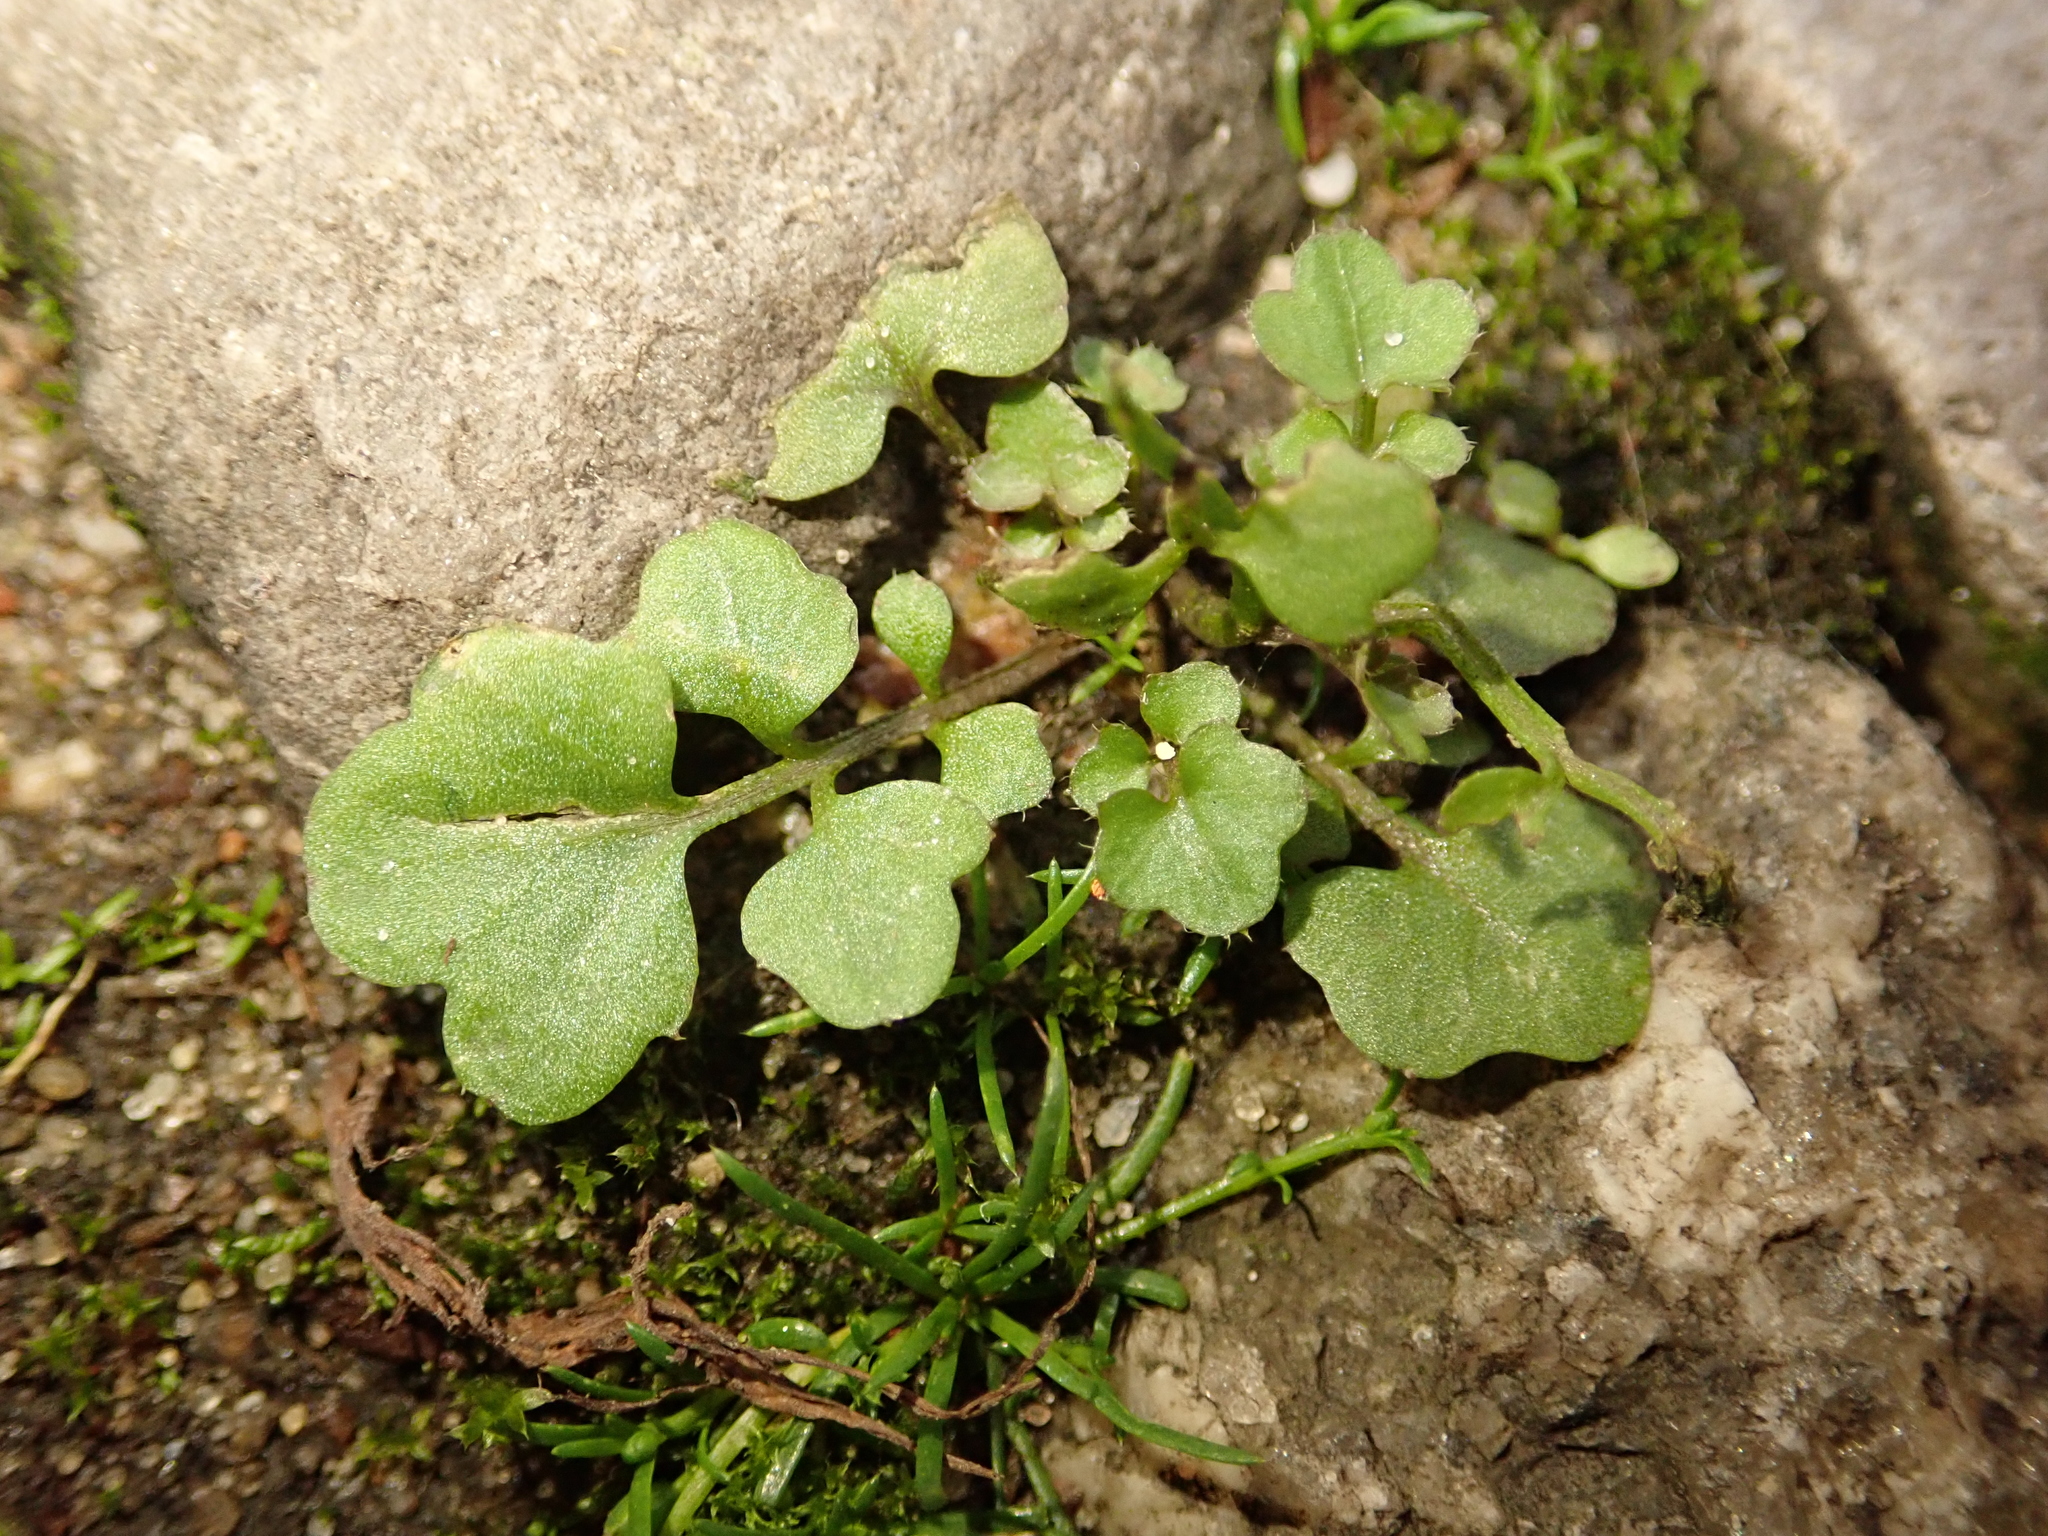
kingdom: Plantae
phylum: Tracheophyta
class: Magnoliopsida
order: Brassicales
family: Brassicaceae
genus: Cardamine
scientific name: Cardamine hirsuta
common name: Hairy bittercress
